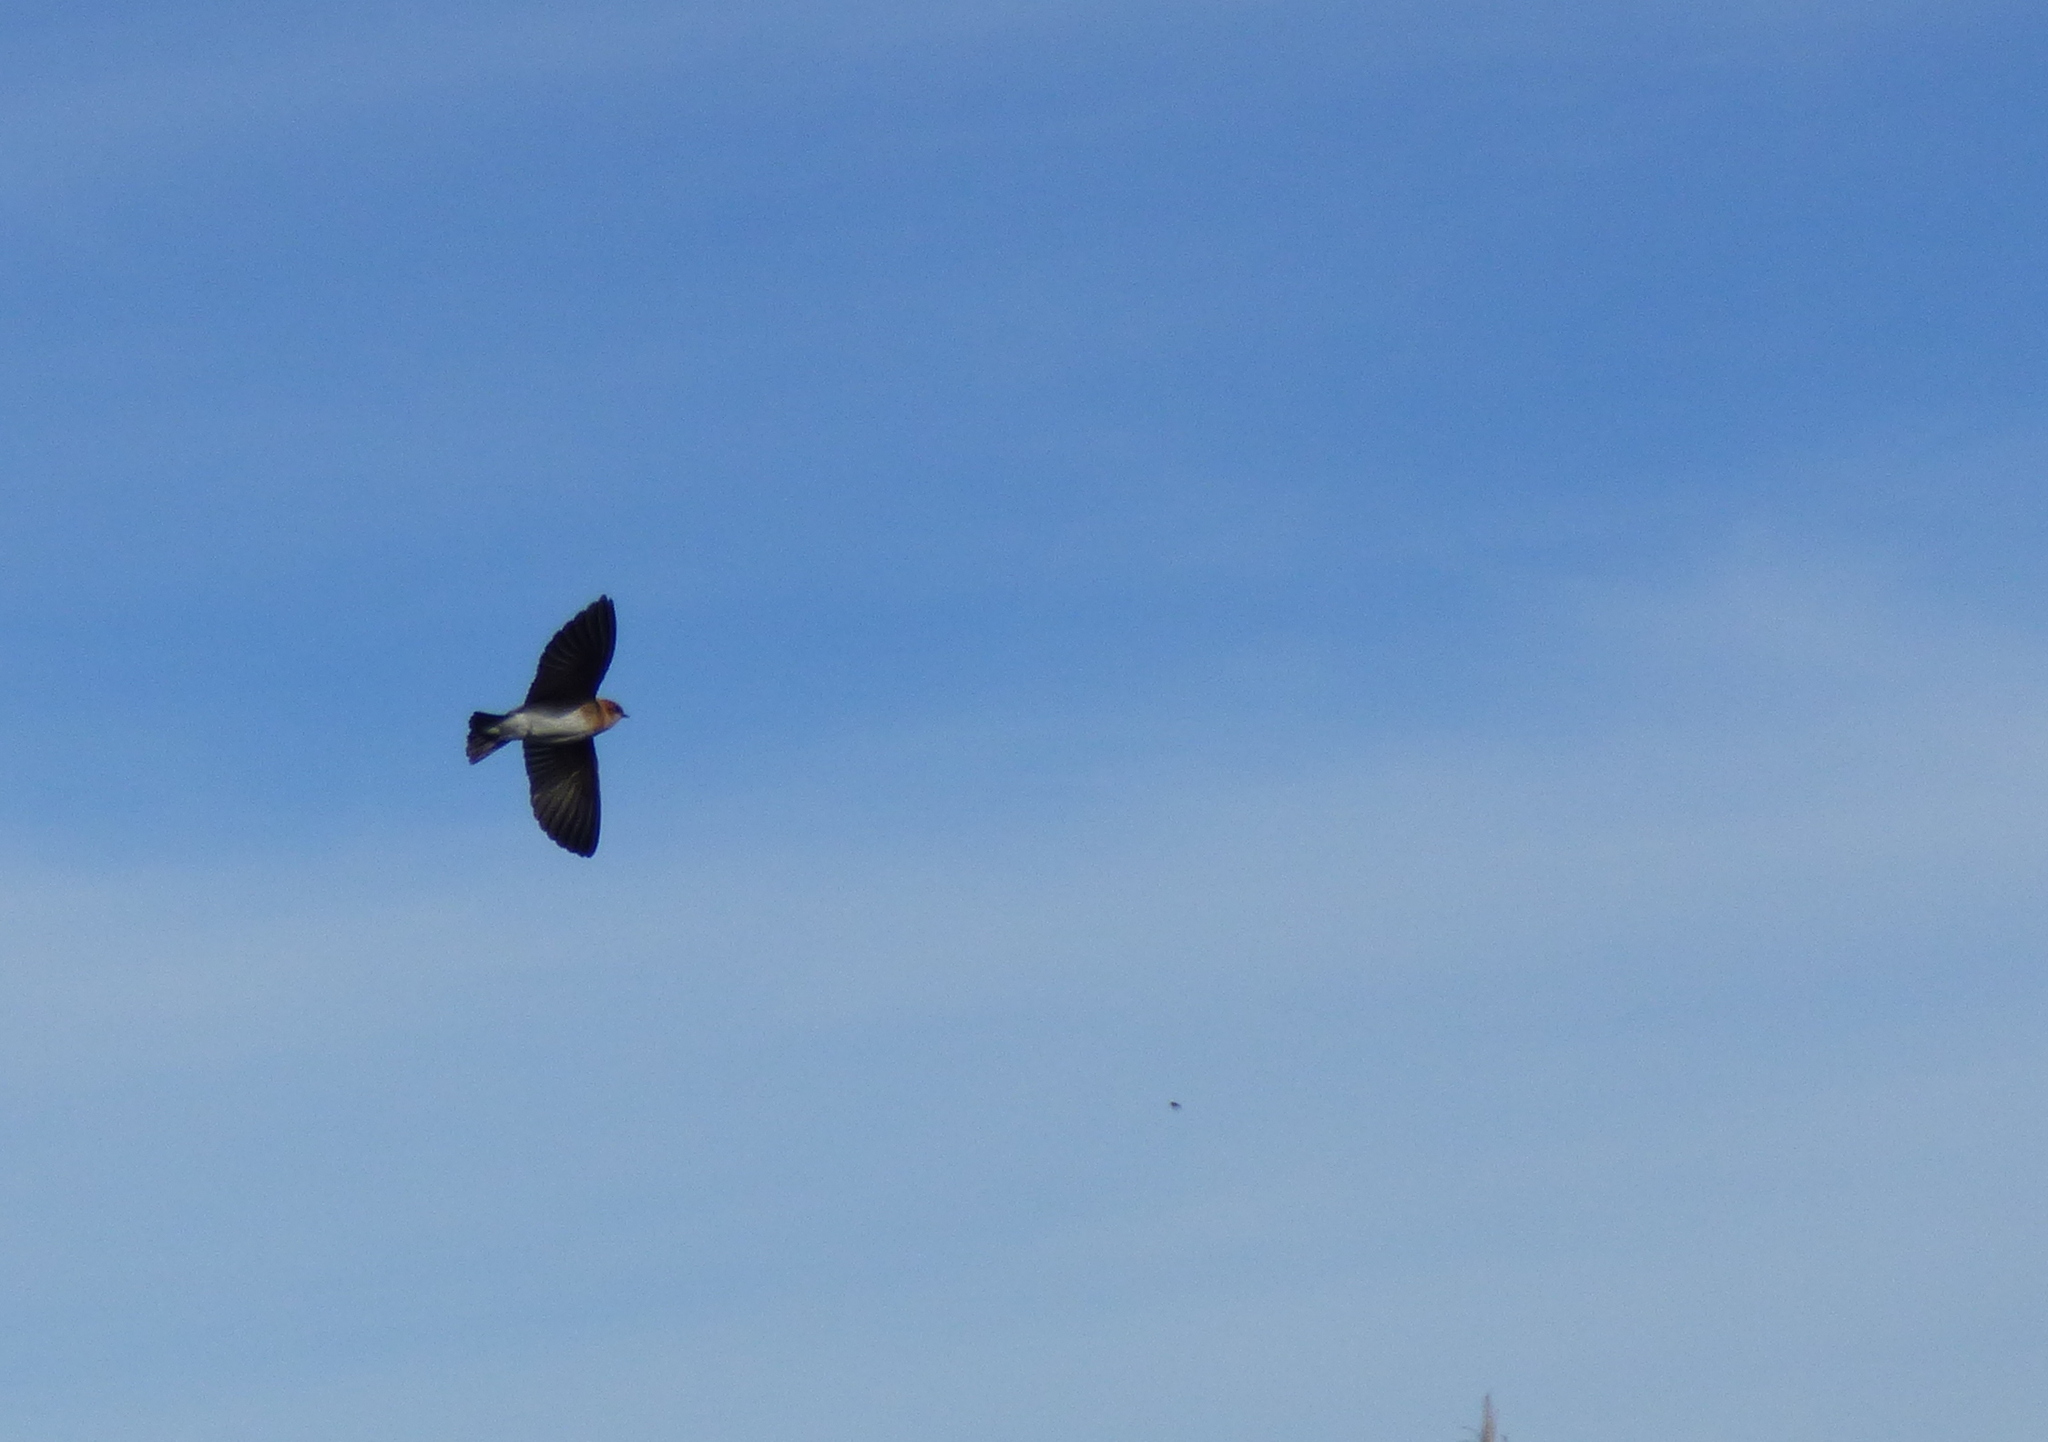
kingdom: Animalia
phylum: Chordata
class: Aves
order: Passeriformes
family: Hirundinidae
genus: Alopochelidon
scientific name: Alopochelidon fucata
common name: Tawny-headed swallow
